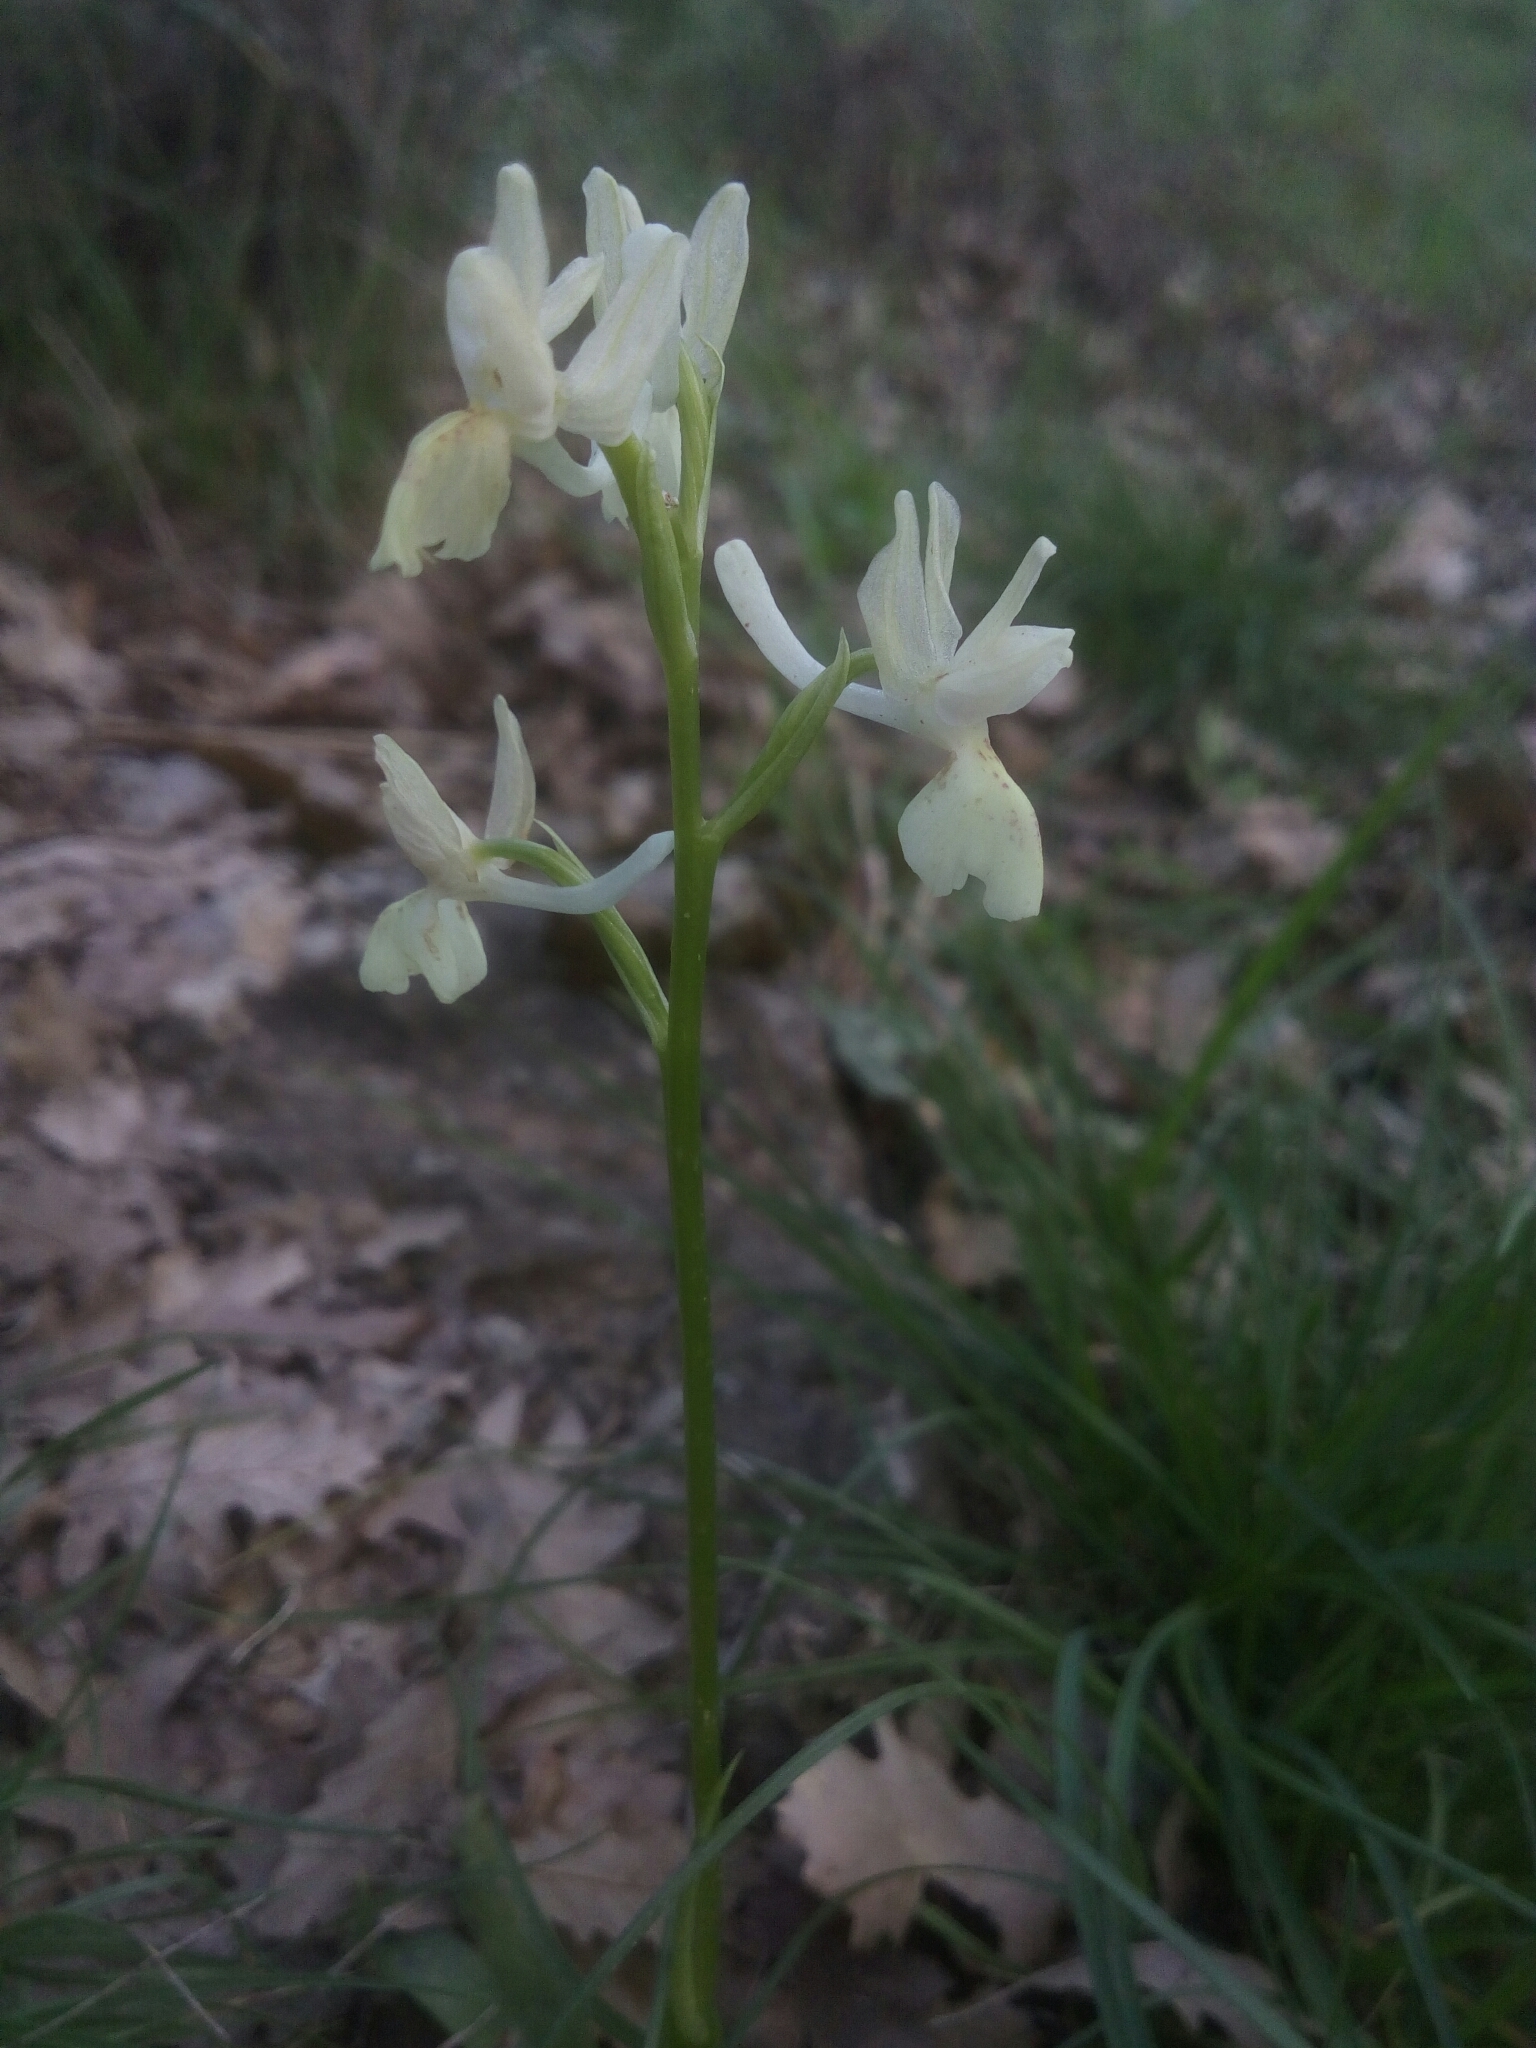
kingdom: Plantae
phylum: Tracheophyta
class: Liliopsida
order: Asparagales
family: Orchidaceae
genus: Orchis
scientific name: Orchis provincialis
